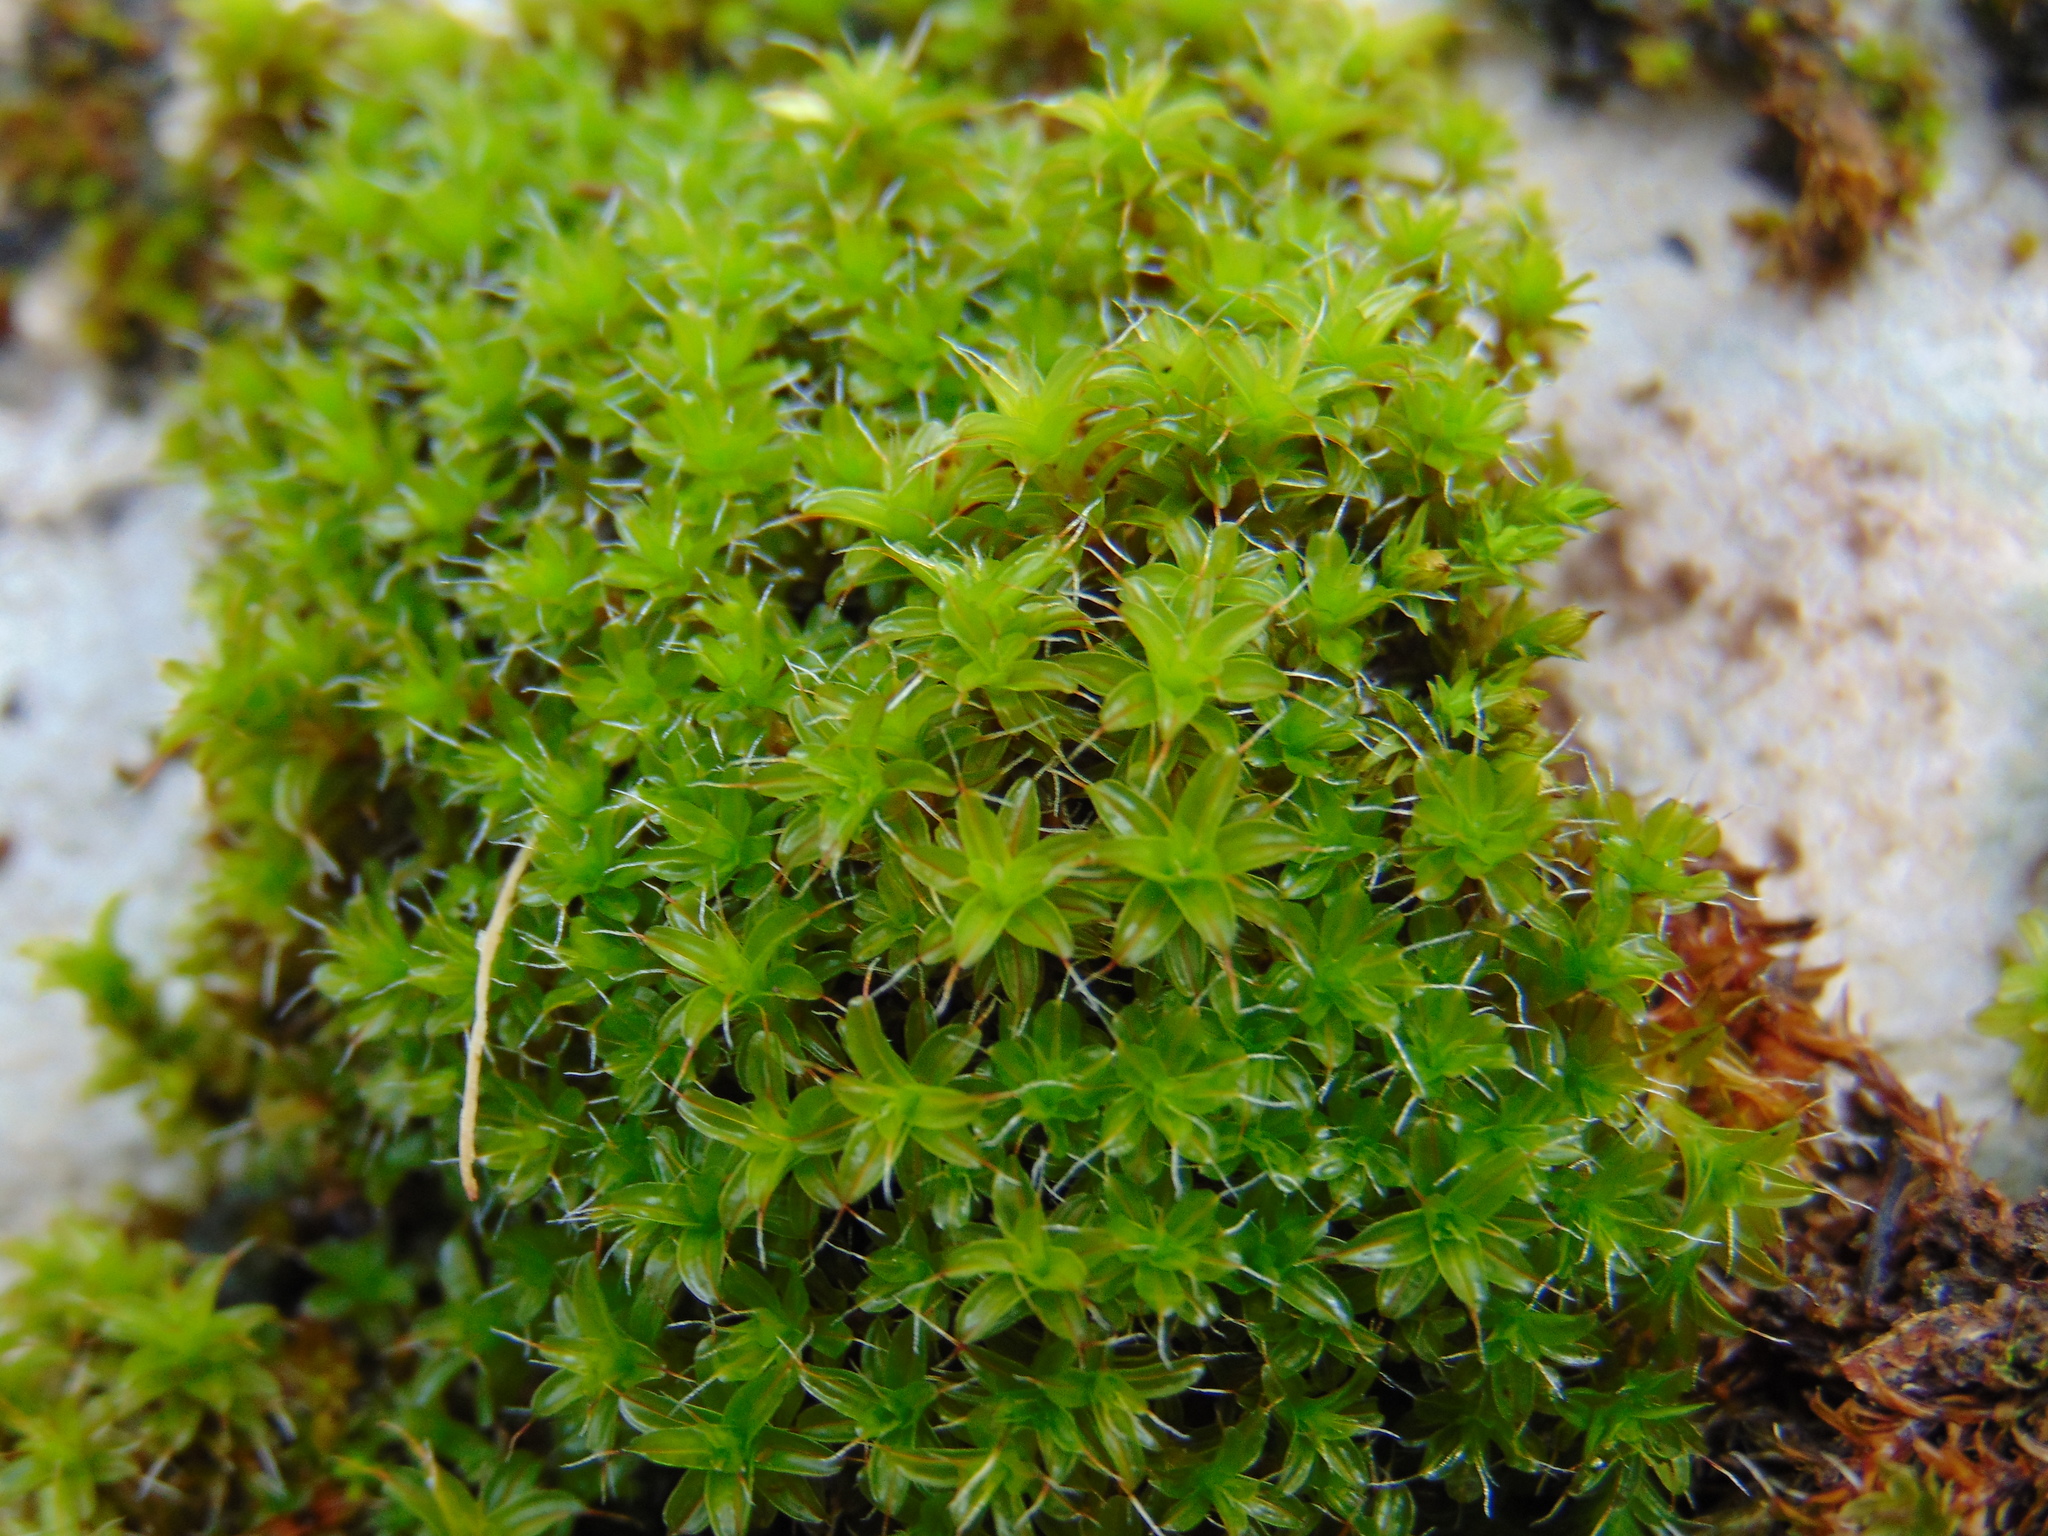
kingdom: Plantae
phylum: Bryophyta
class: Bryopsida
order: Pottiales
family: Pottiaceae
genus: Syntrichia
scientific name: Syntrichia ruralis
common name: Sidewalk screw moss
